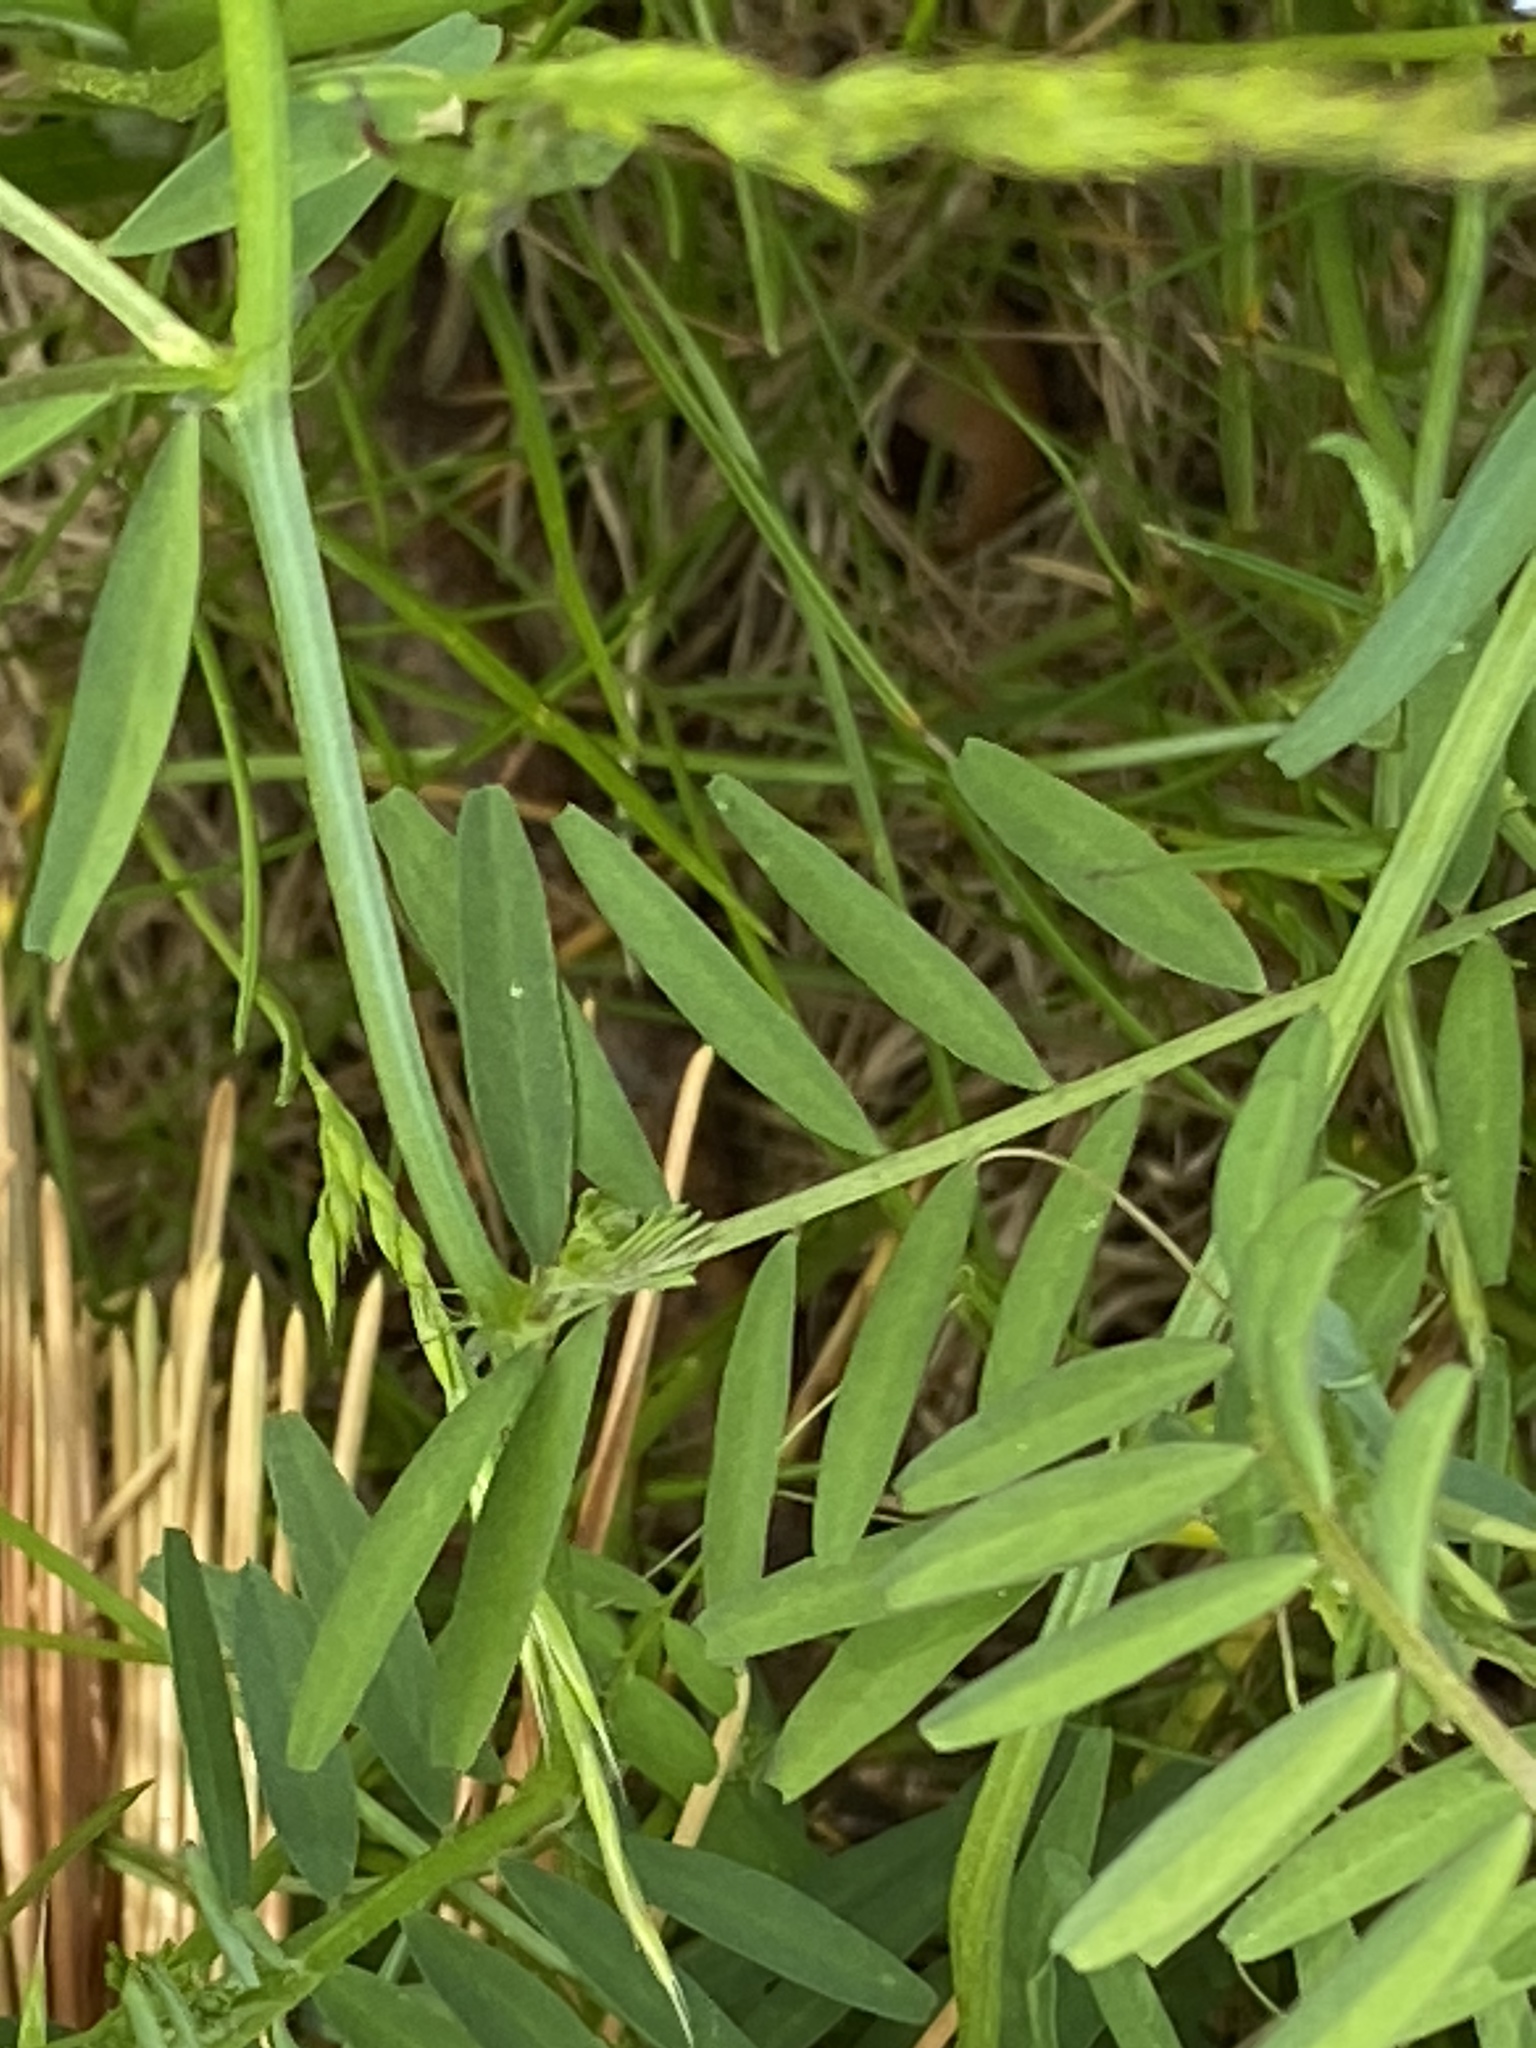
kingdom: Plantae
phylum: Tracheophyta
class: Magnoliopsida
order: Fabales
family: Fabaceae
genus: Vicia
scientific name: Vicia hirsuta
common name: Tiny vetch
